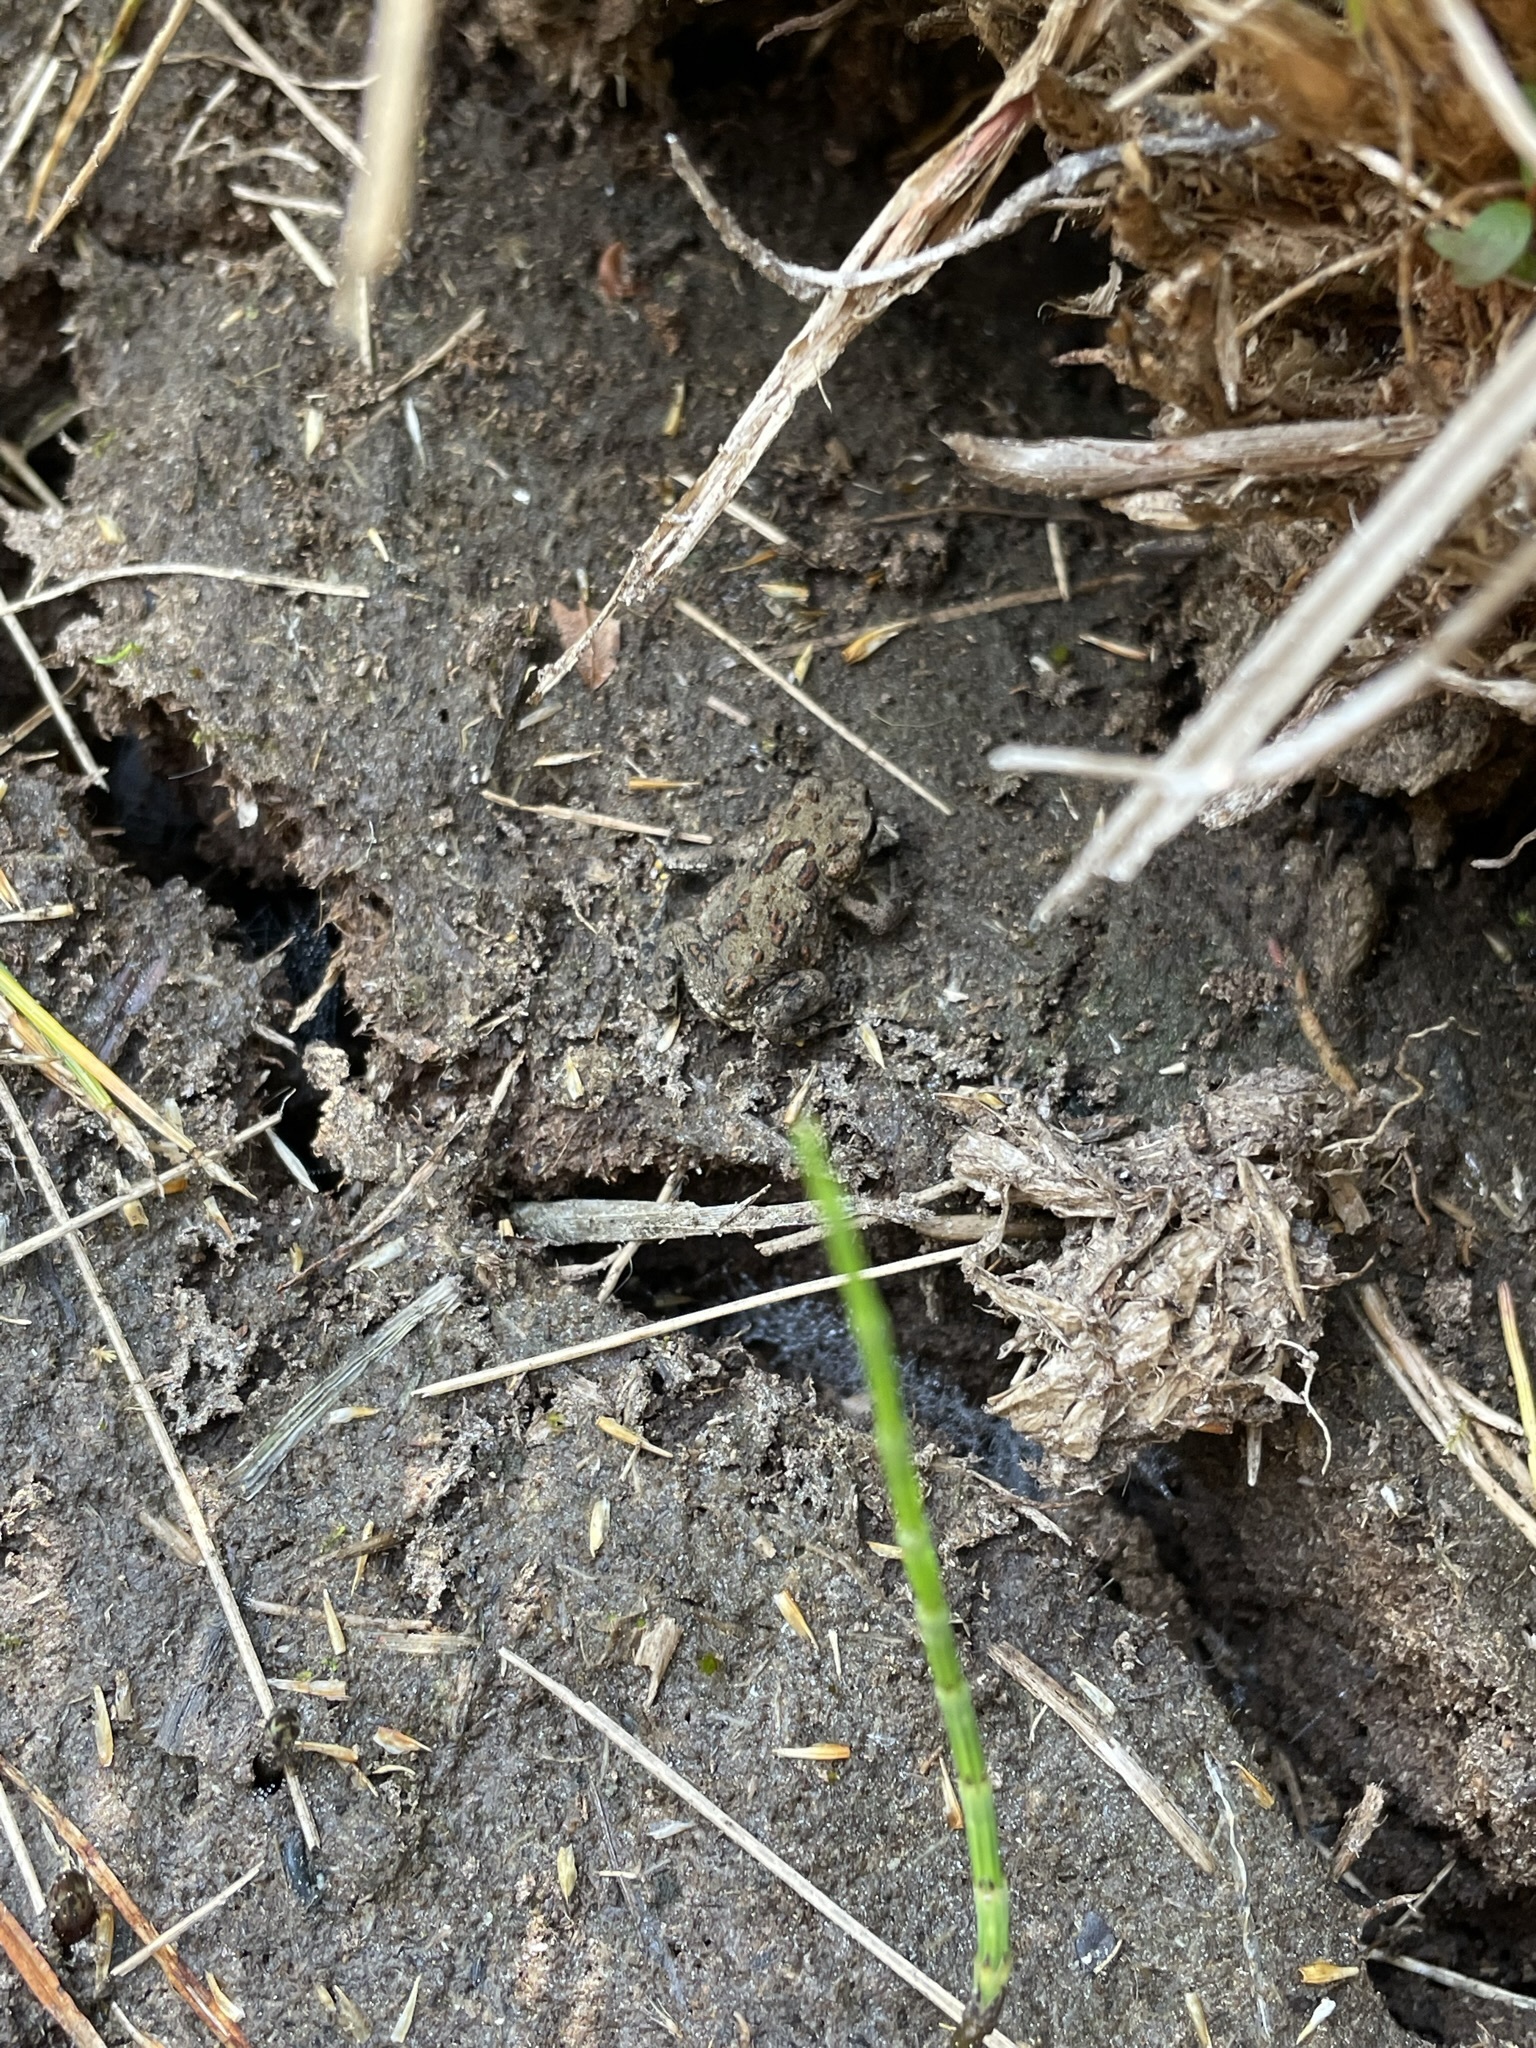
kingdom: Animalia
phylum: Chordata
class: Amphibia
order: Anura
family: Bufonidae
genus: Anaxyrus
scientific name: Anaxyrus boreas
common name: Western toad
